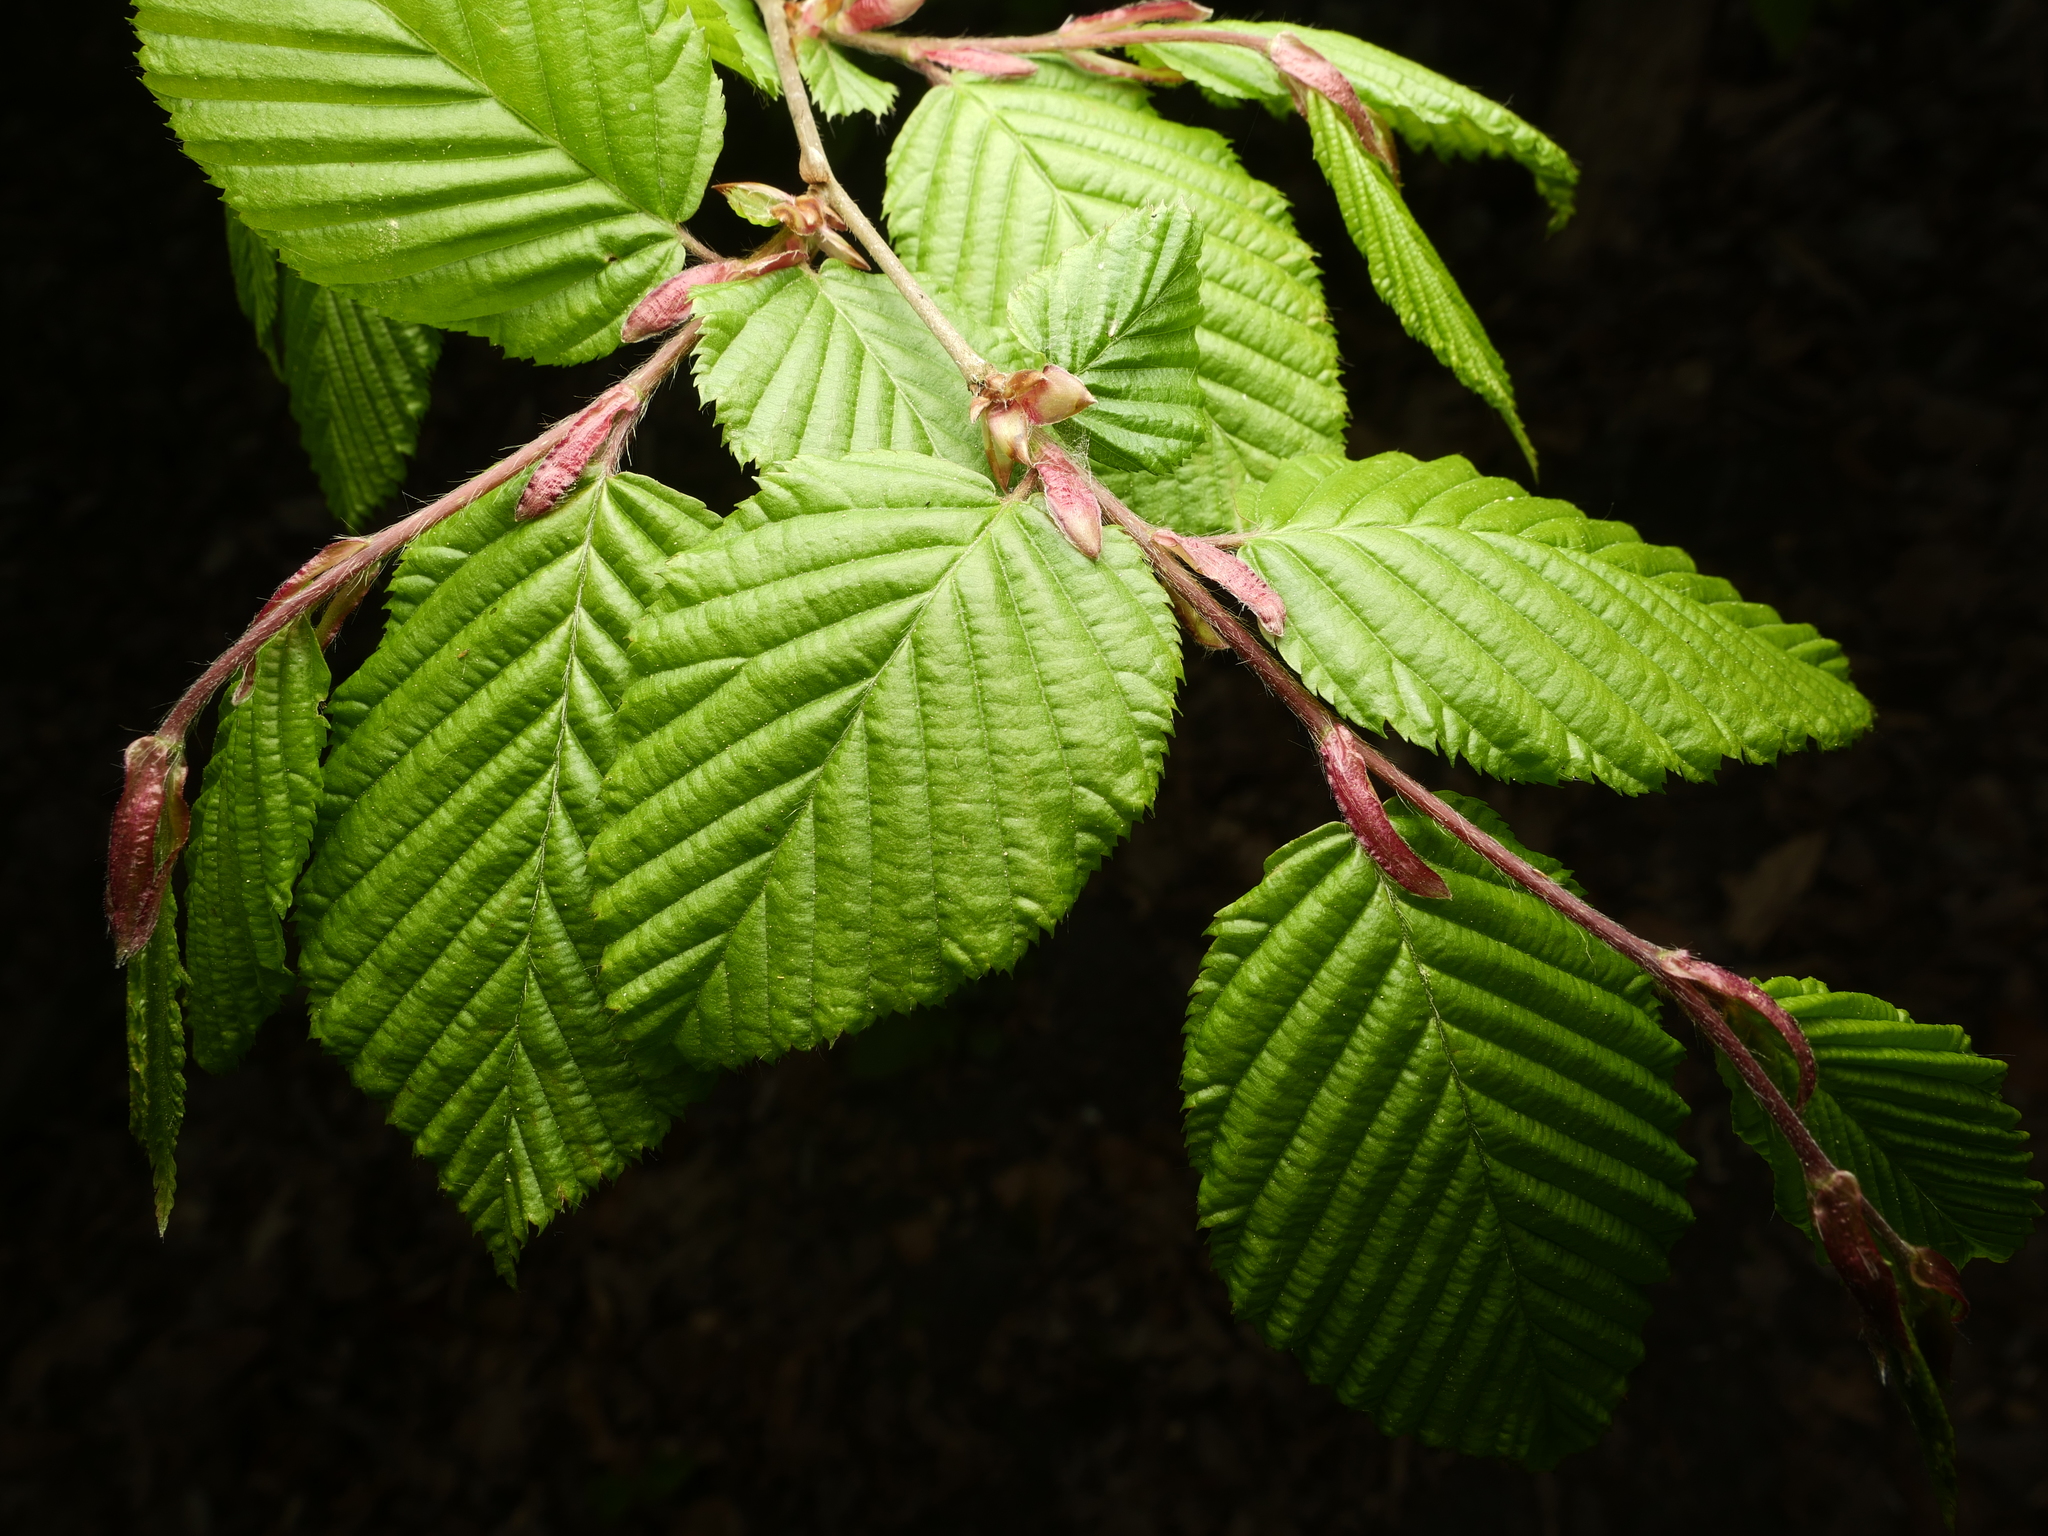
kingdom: Plantae
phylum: Tracheophyta
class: Magnoliopsida
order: Fagales
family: Betulaceae
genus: Carpinus
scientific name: Carpinus betulus
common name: Hornbeam
